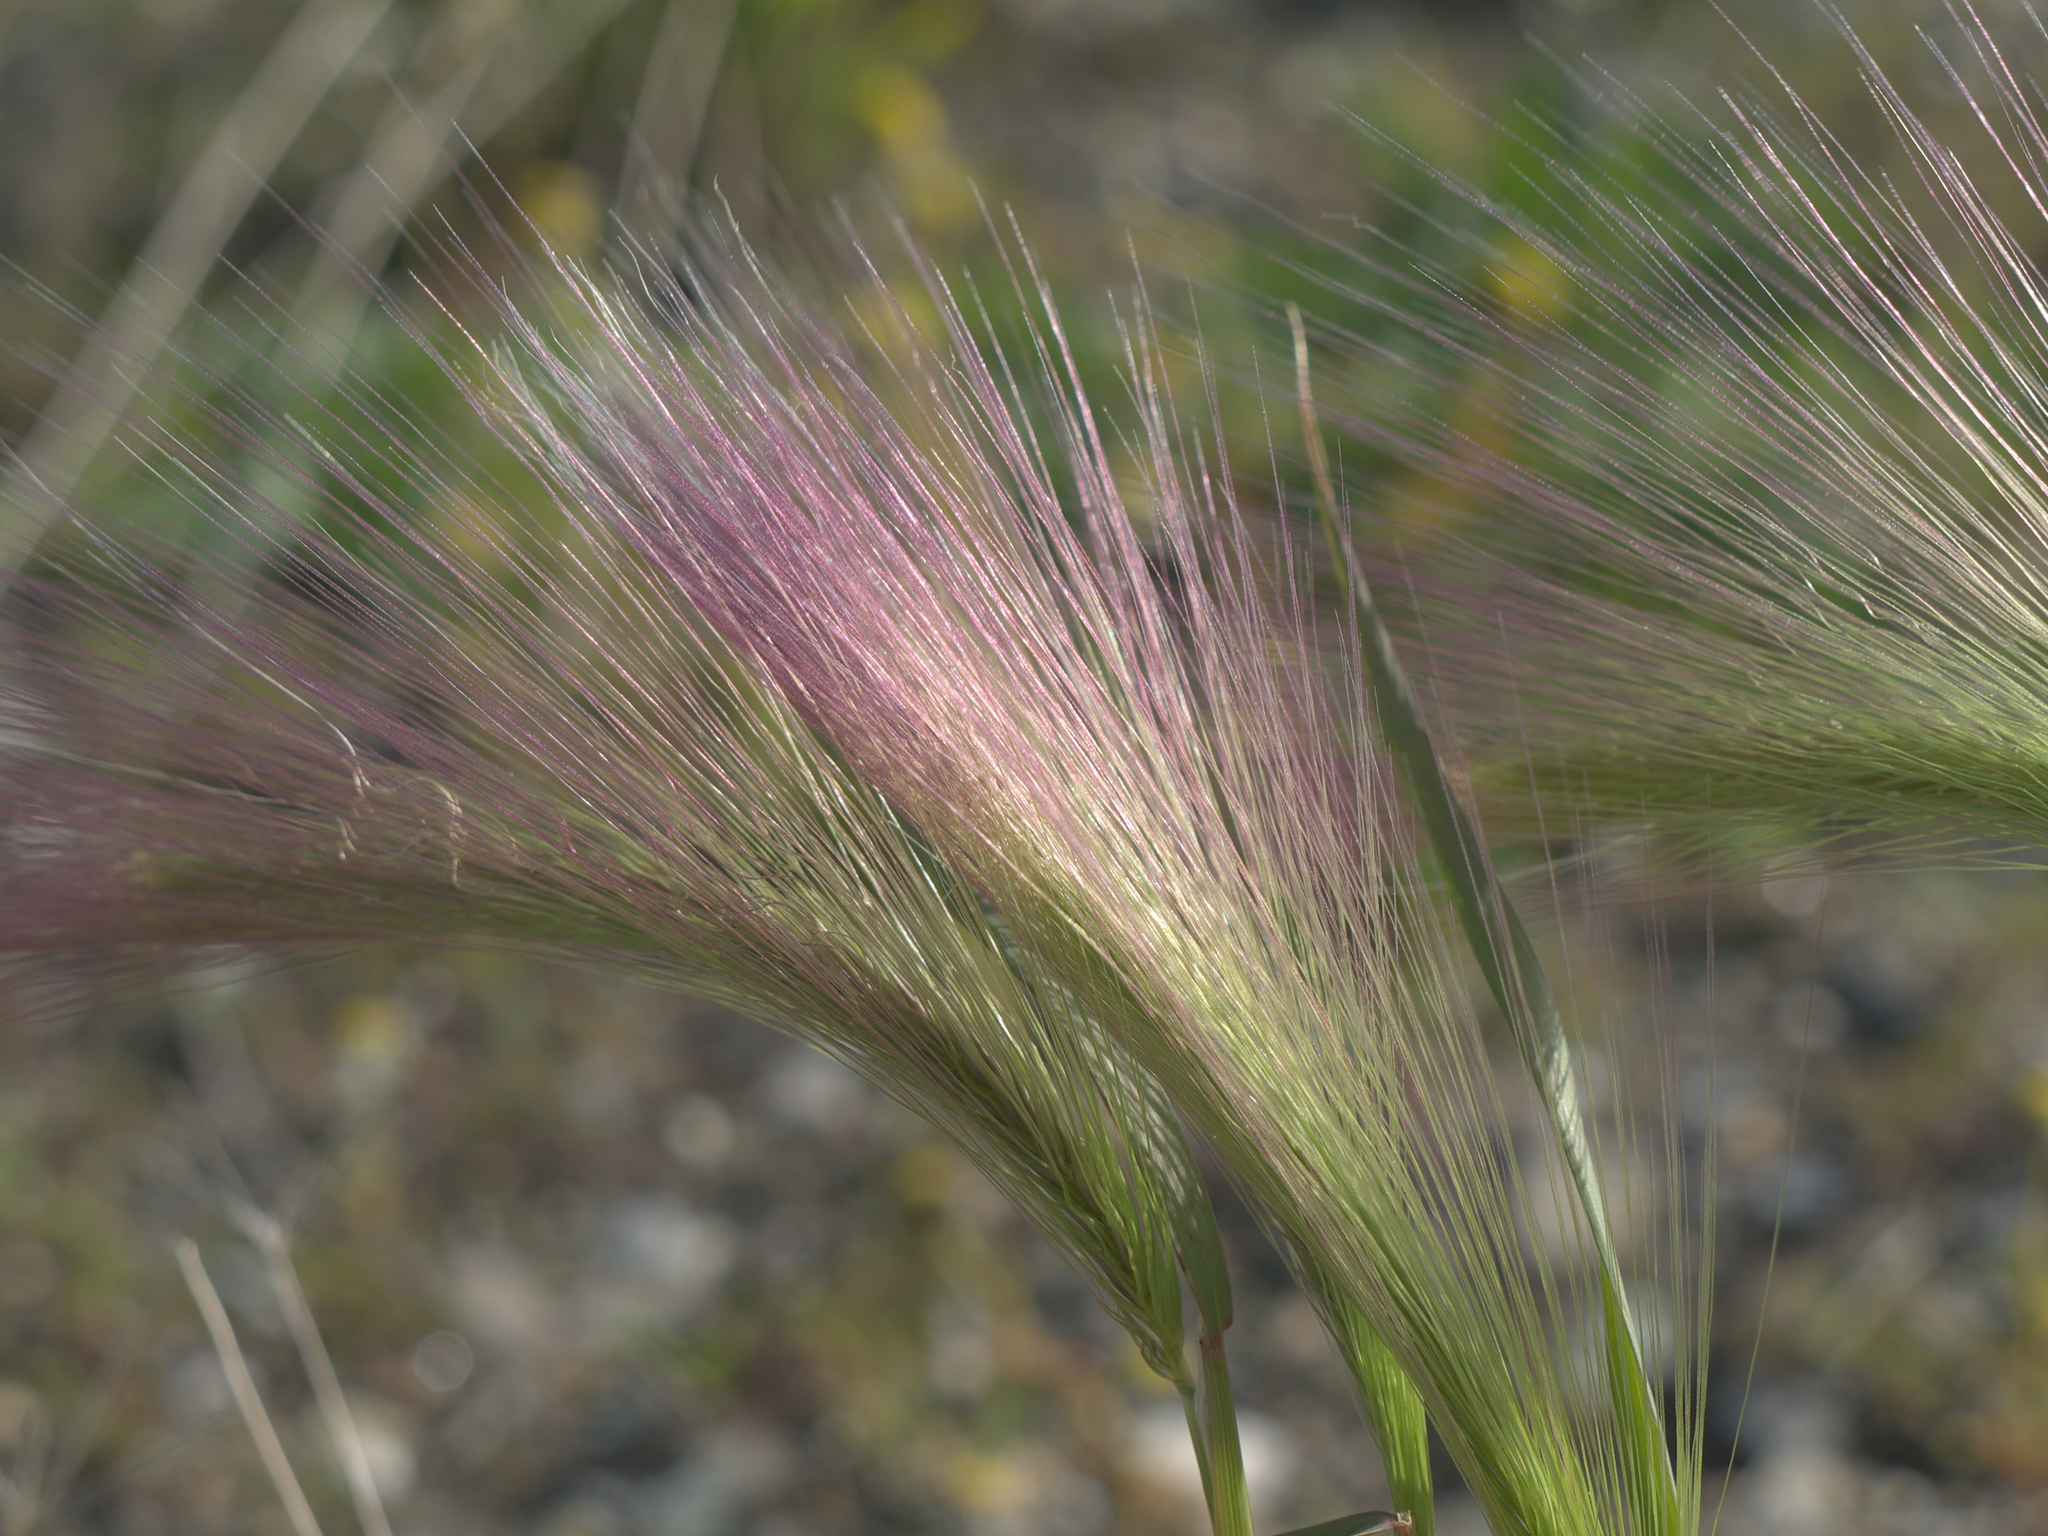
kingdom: Plantae
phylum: Tracheophyta
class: Liliopsida
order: Poales
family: Poaceae
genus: Hordeum
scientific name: Hordeum jubatum
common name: Foxtail barley
